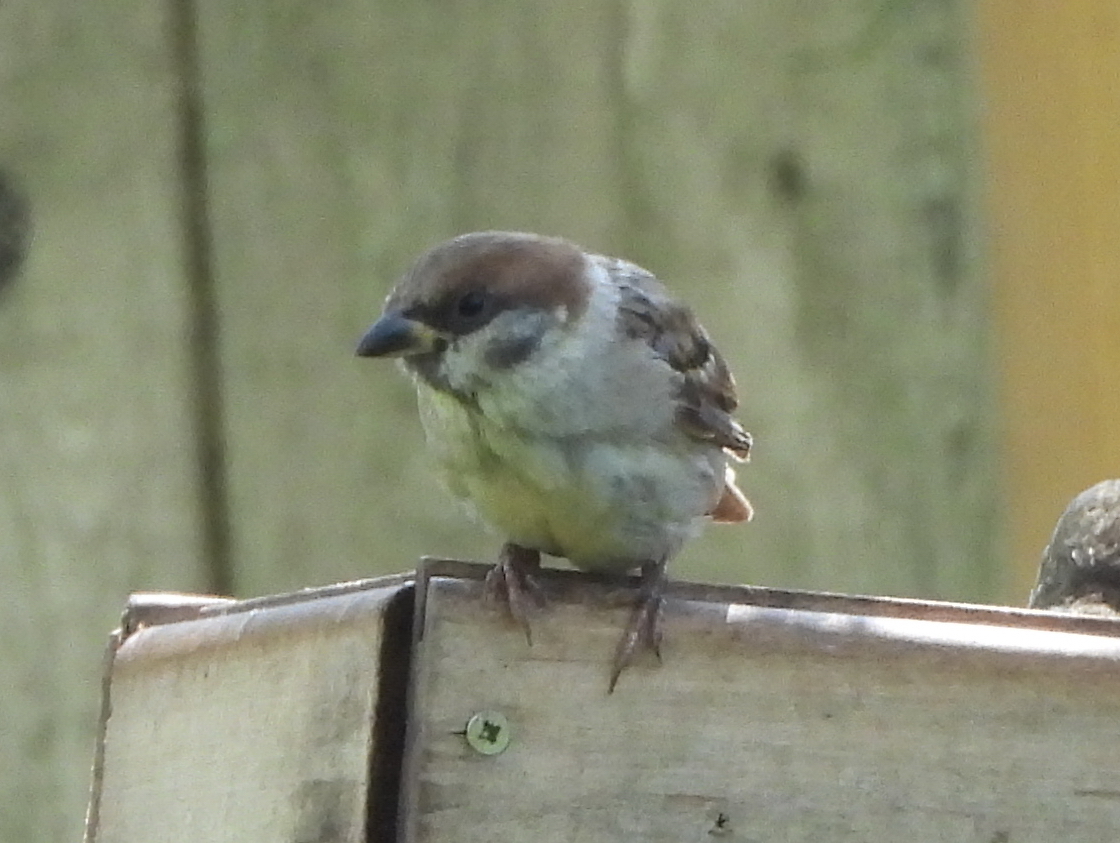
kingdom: Animalia
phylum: Chordata
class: Aves
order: Passeriformes
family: Passeridae
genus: Passer
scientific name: Passer montanus
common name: Eurasian tree sparrow
